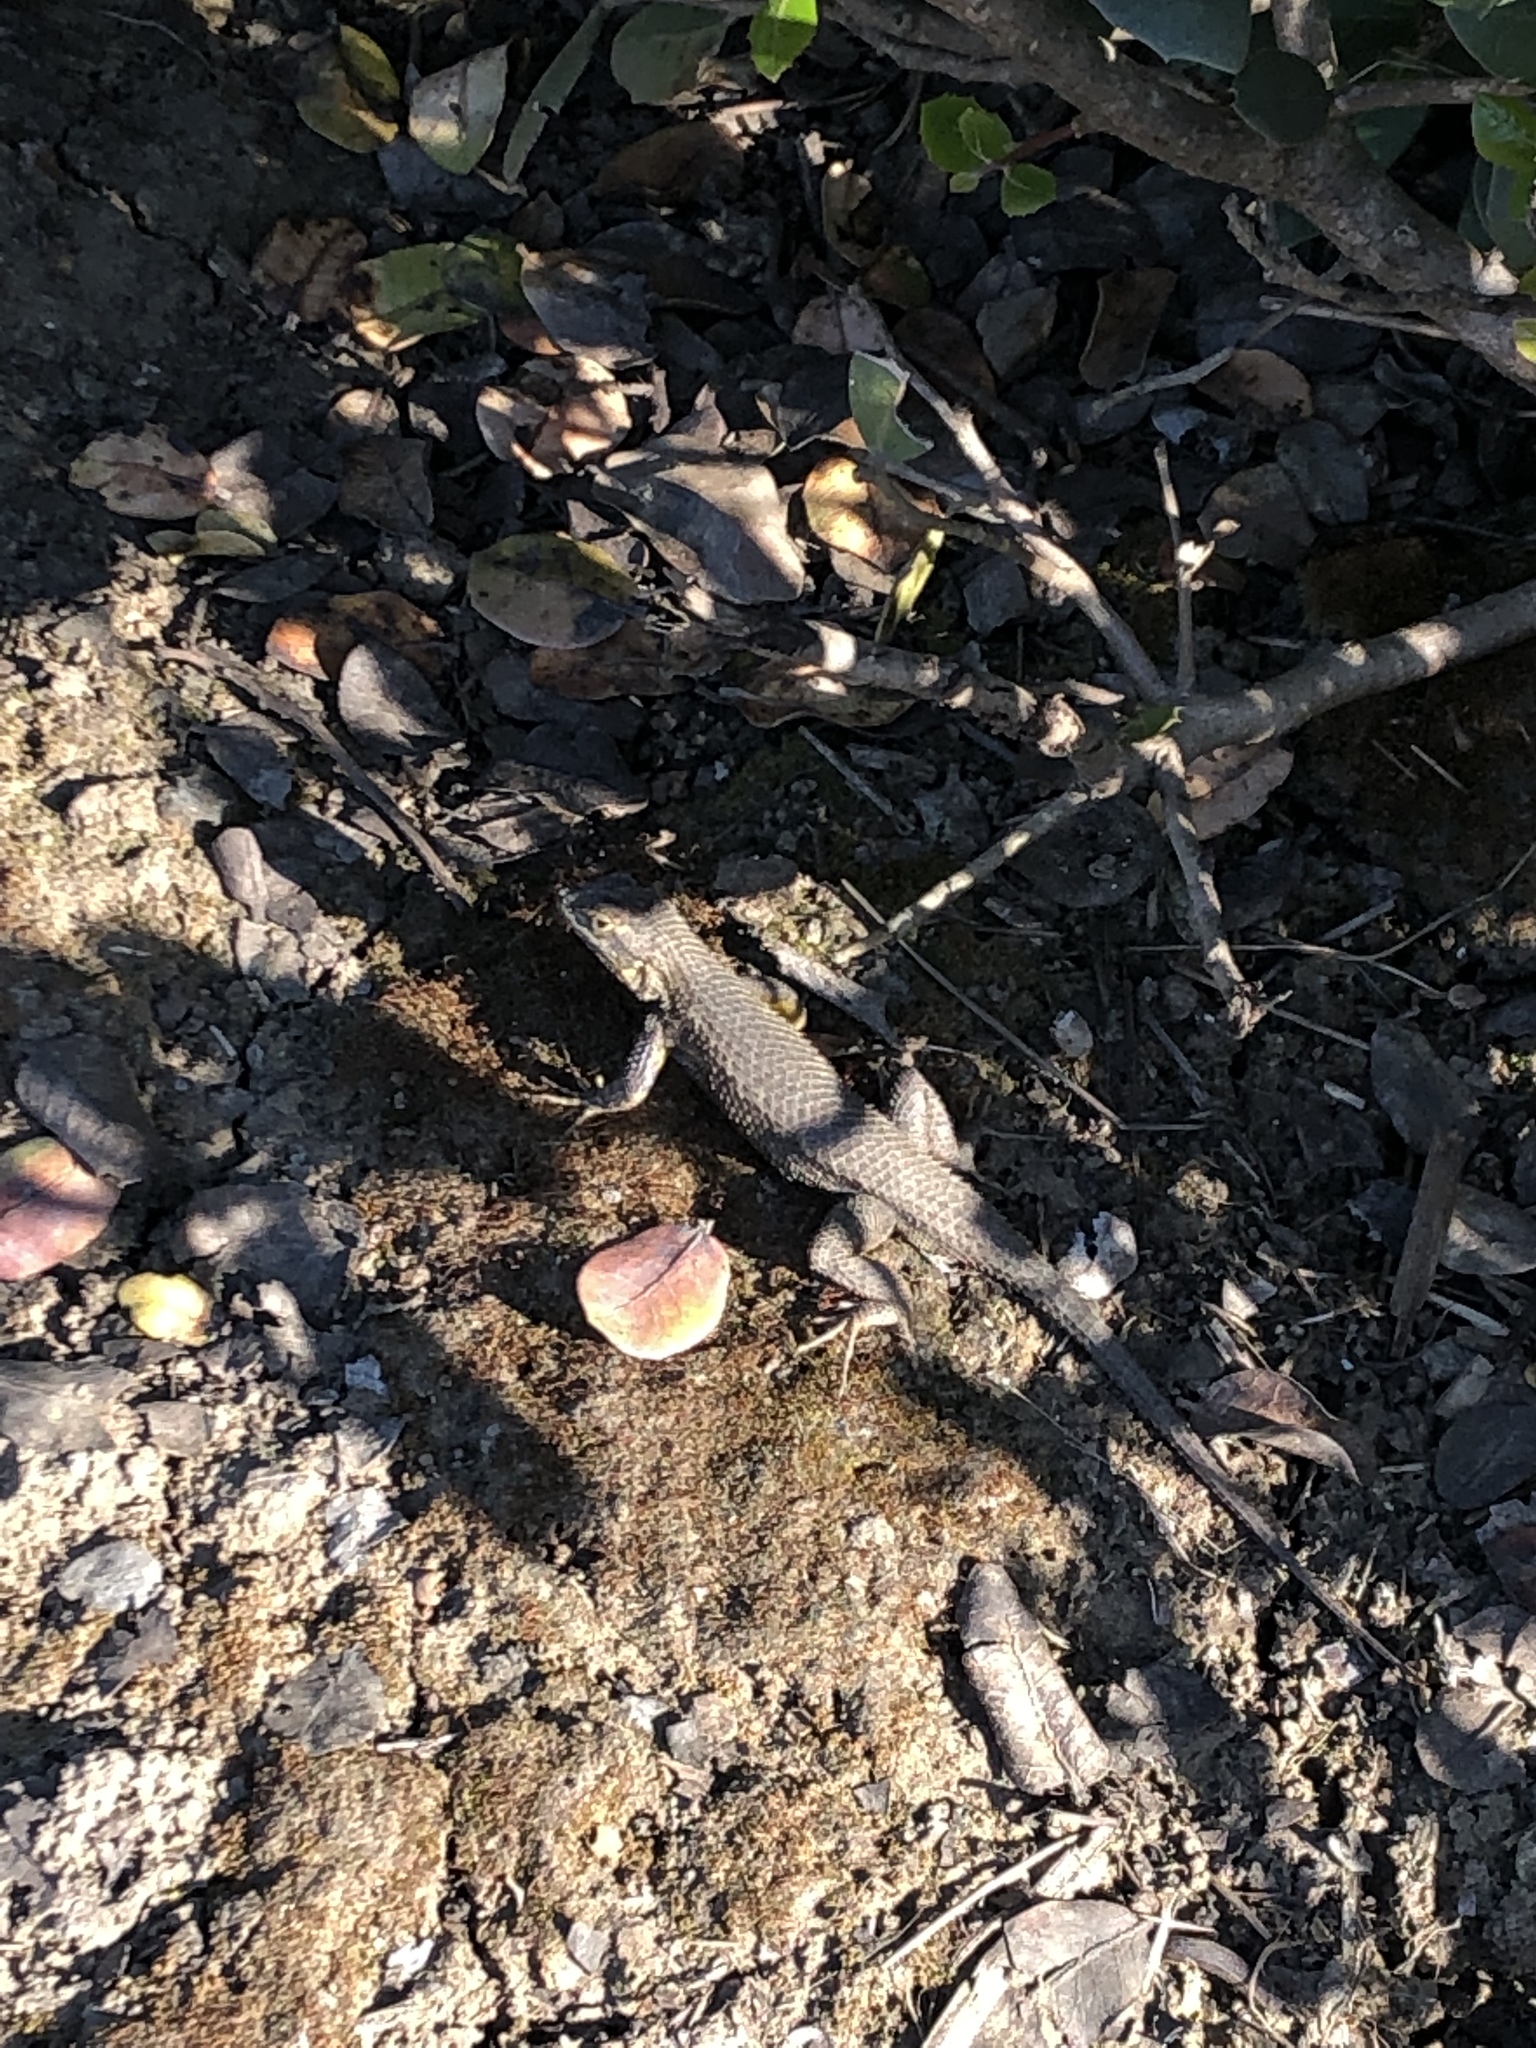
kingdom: Animalia
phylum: Chordata
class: Squamata
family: Phrynosomatidae
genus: Sceloporus
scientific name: Sceloporus occidentalis
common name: Western fence lizard
